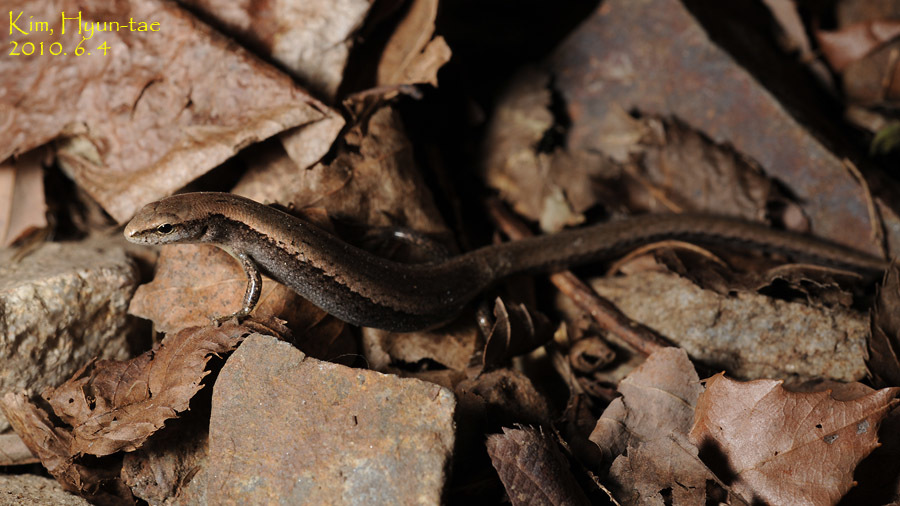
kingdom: Animalia
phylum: Chordata
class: Squamata
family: Scincidae
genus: Scincella
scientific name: Scincella vandenburghi
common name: Tsushima smooth skink
